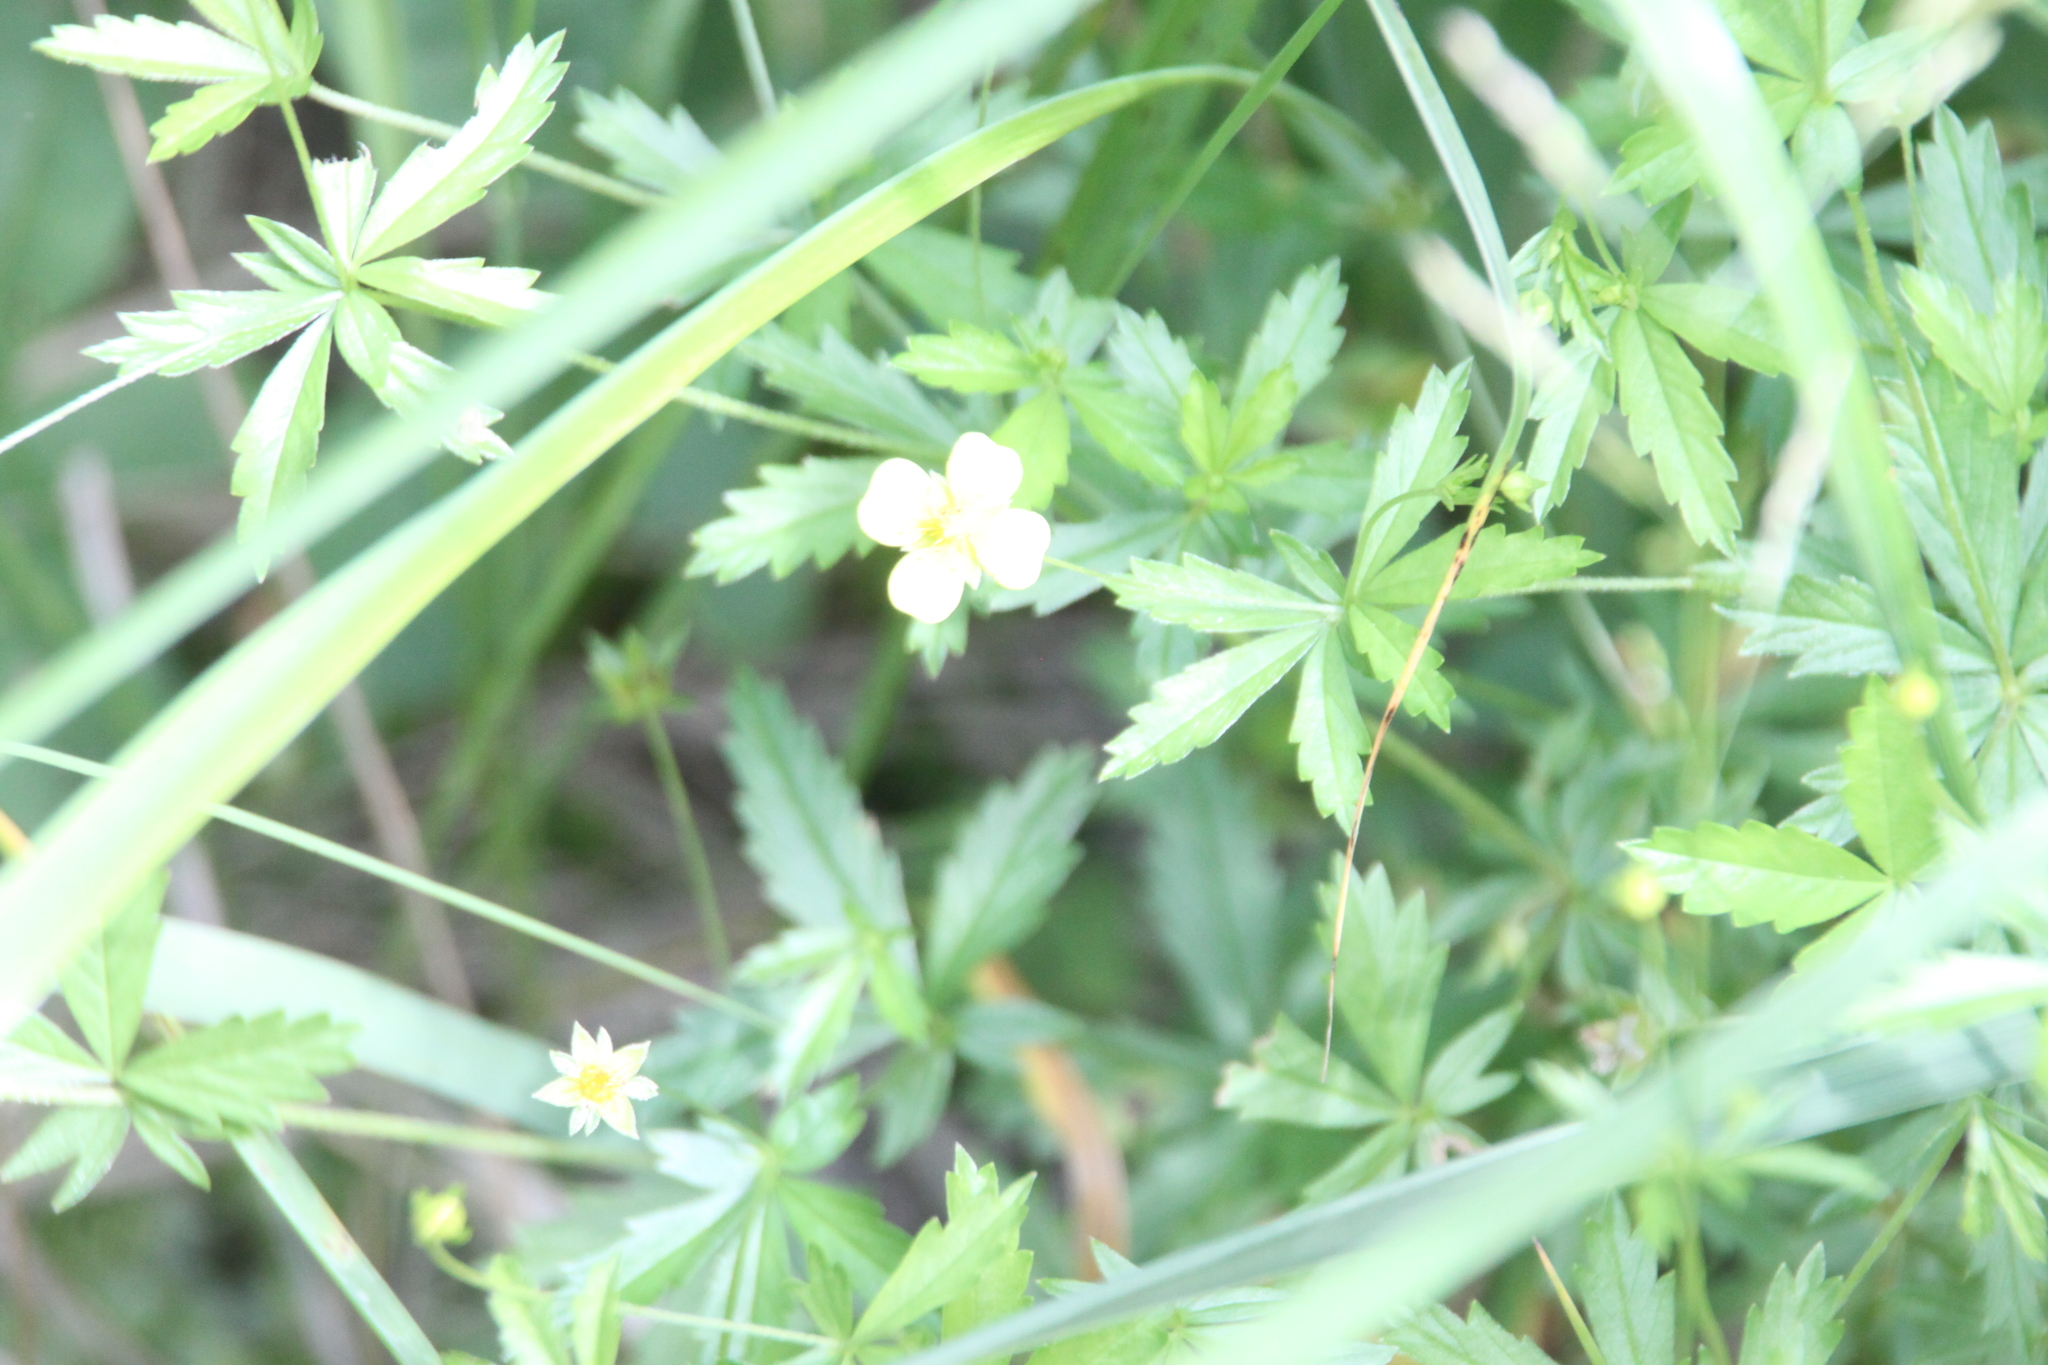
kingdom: Plantae
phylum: Tracheophyta
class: Magnoliopsida
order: Rosales
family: Rosaceae
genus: Potentilla
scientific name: Potentilla erecta
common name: Tormentil
